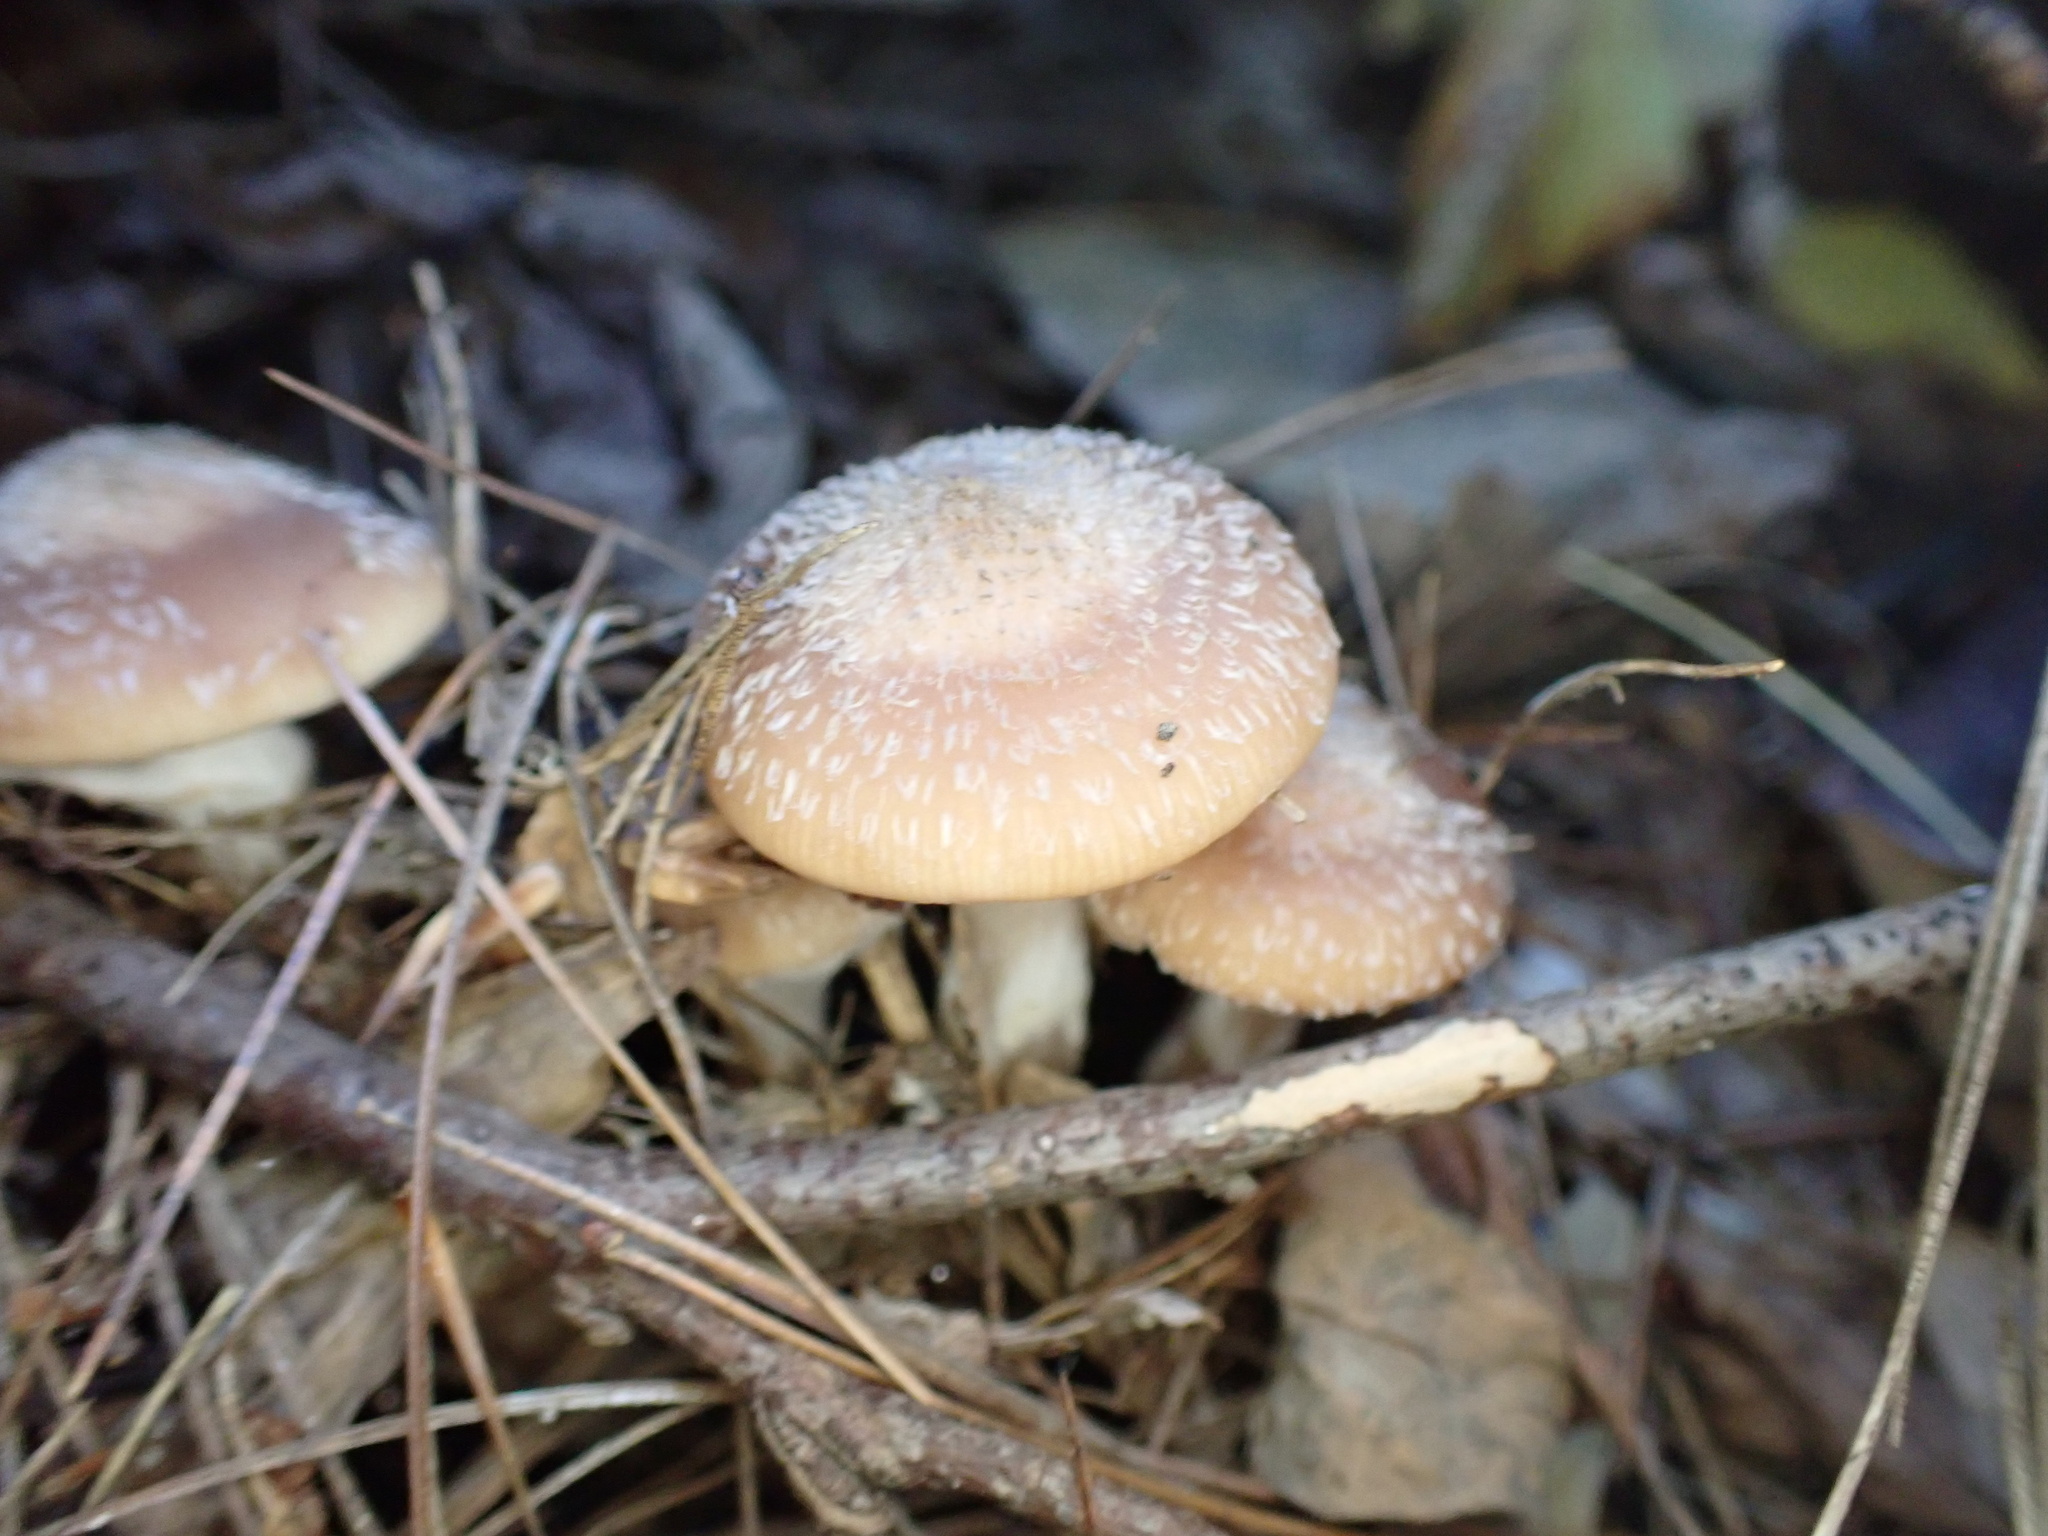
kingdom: Fungi
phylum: Basidiomycota
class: Agaricomycetes
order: Agaricales
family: Physalacriaceae
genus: Armillaria
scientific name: Armillaria gallica
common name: Bulbous honey fungus
